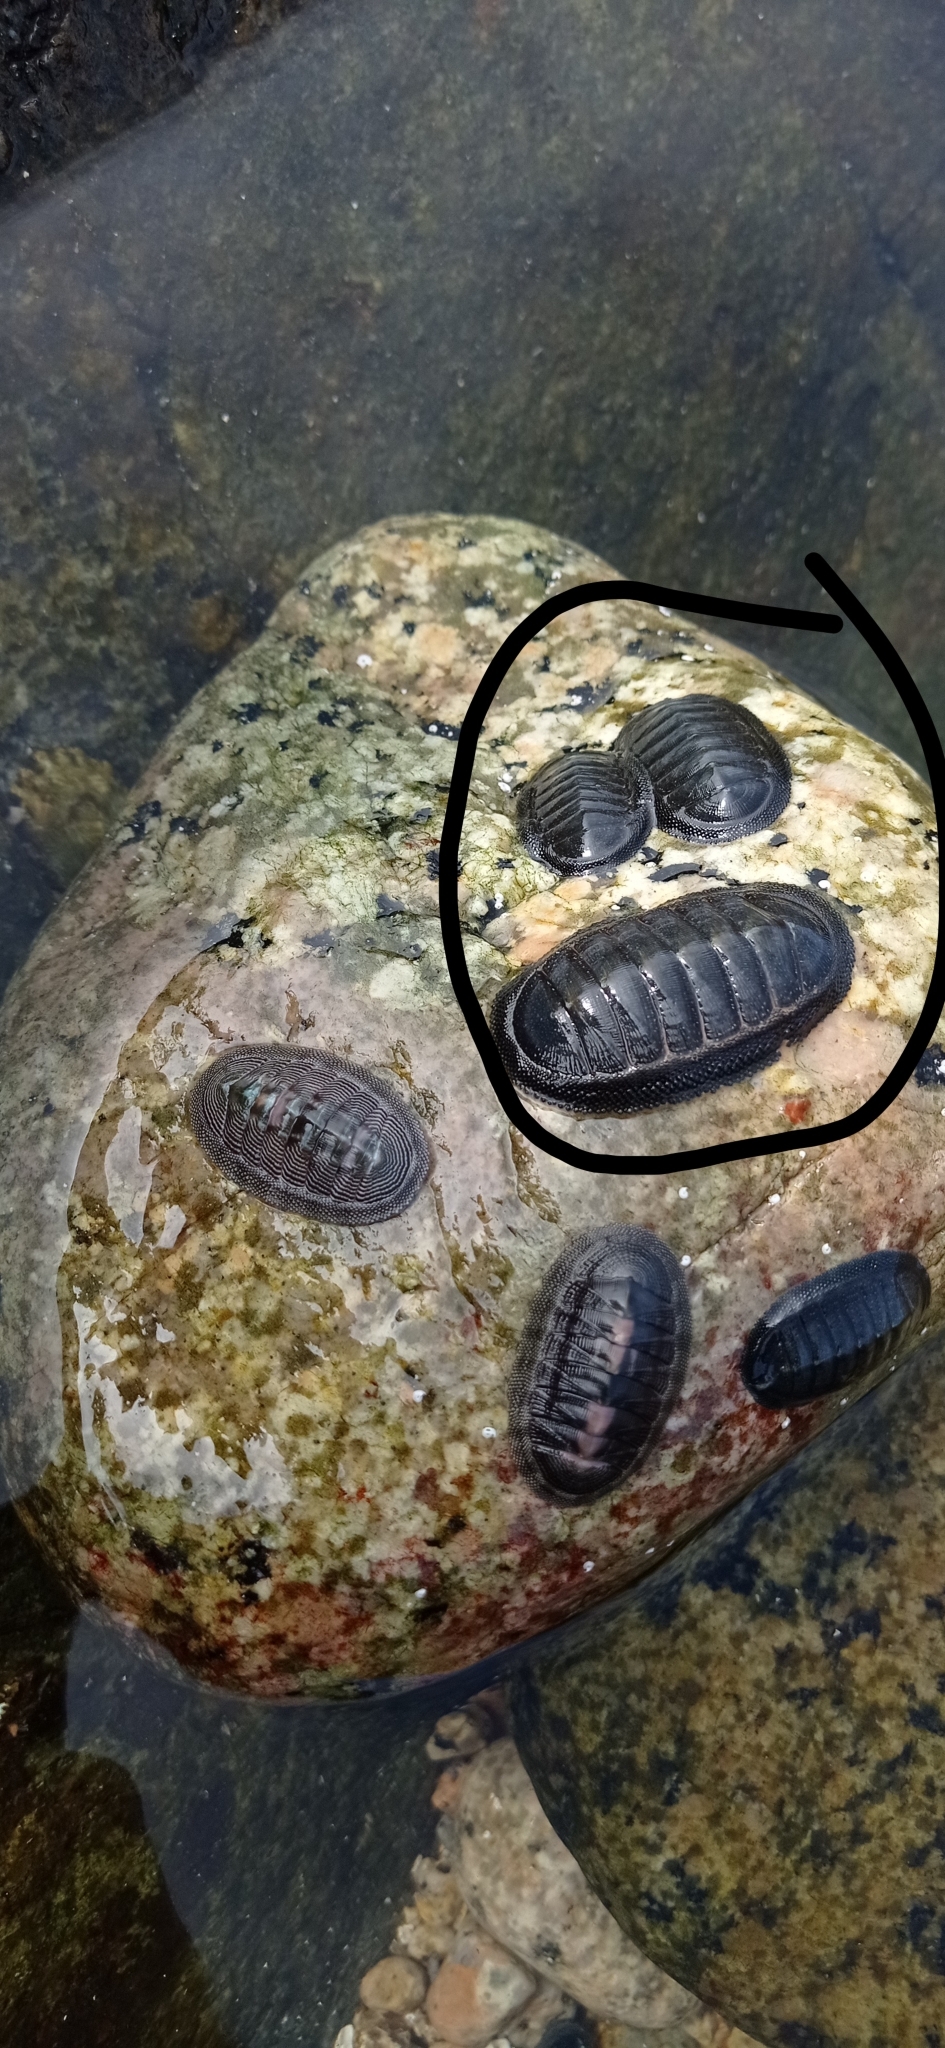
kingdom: Animalia
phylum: Mollusca
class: Polyplacophora
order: Chitonida
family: Chitonidae
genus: Chiton
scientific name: Chiton magnificus
